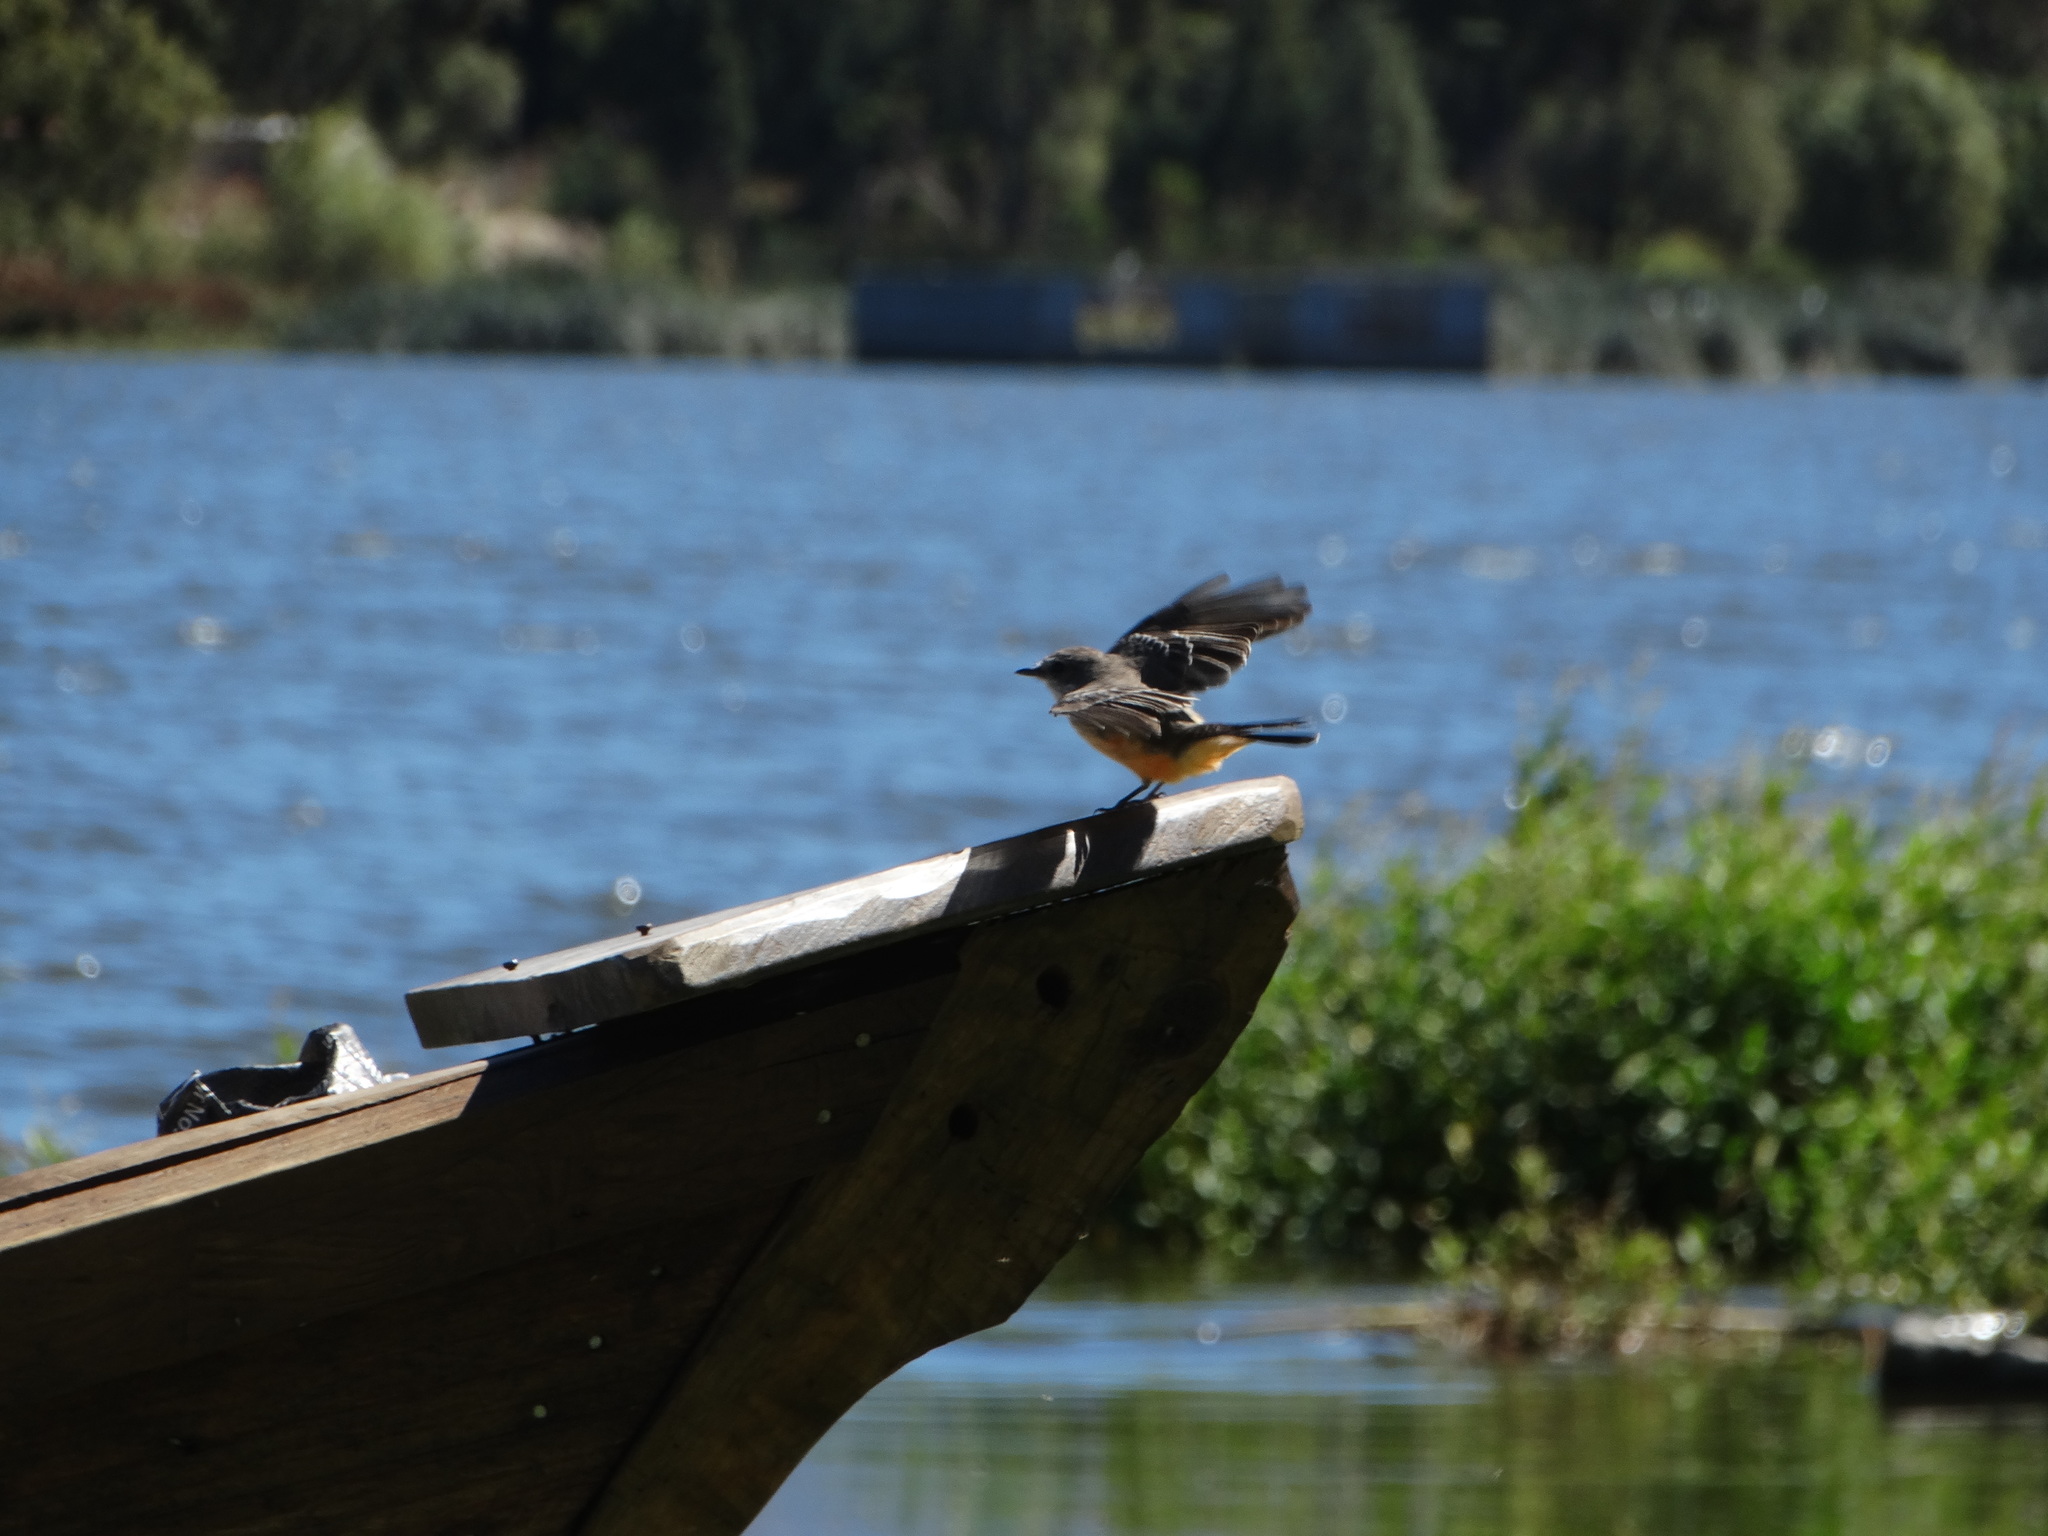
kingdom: Animalia
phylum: Chordata
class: Aves
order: Passeriformes
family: Tyrannidae
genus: Pyrocephalus
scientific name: Pyrocephalus rubinus
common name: Vermilion flycatcher
